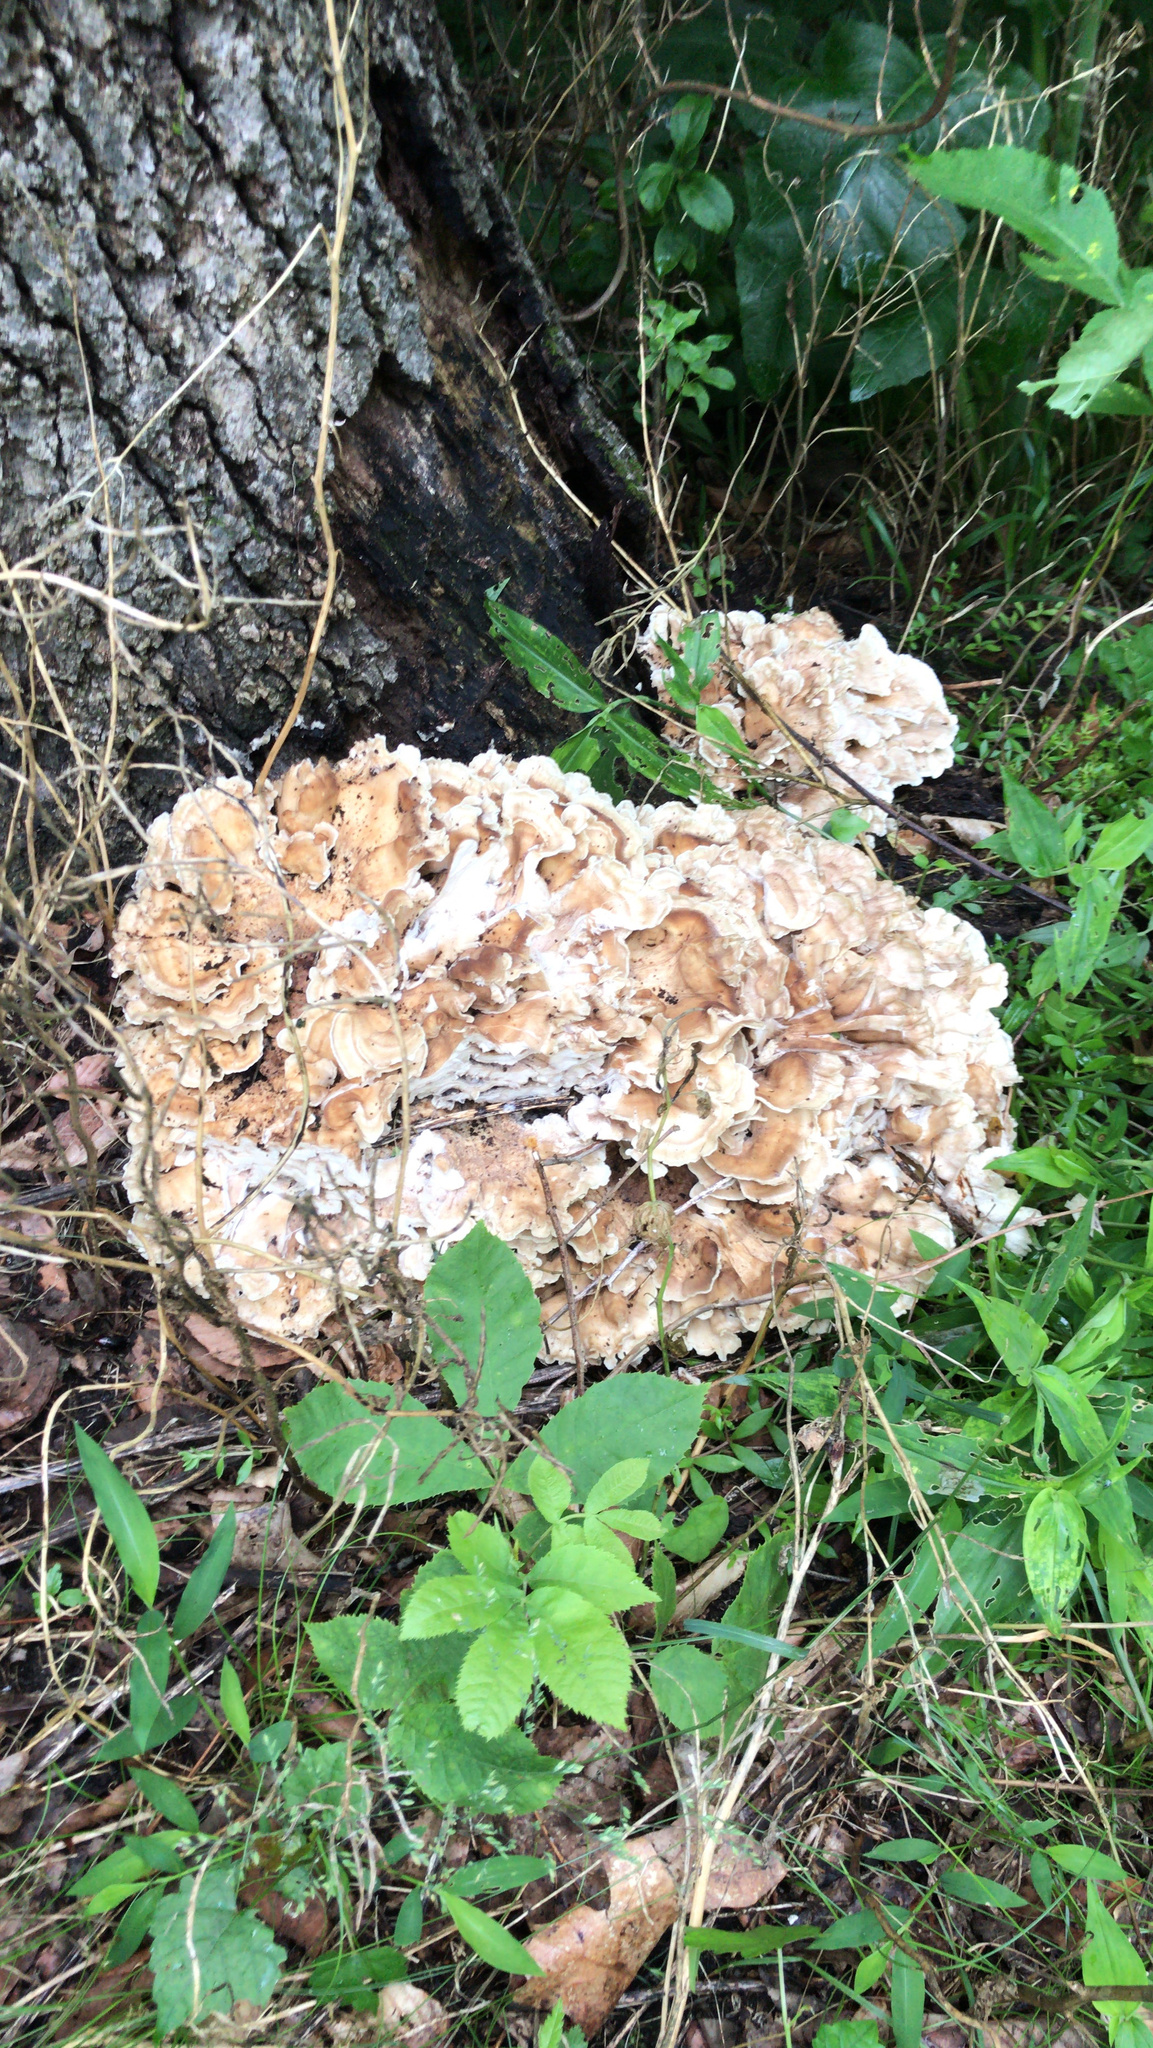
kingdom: Fungi
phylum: Basidiomycota
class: Agaricomycetes
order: Polyporales
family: Meripilaceae
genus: Meripilus
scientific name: Meripilus sumstinei
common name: Black-staining polypore
